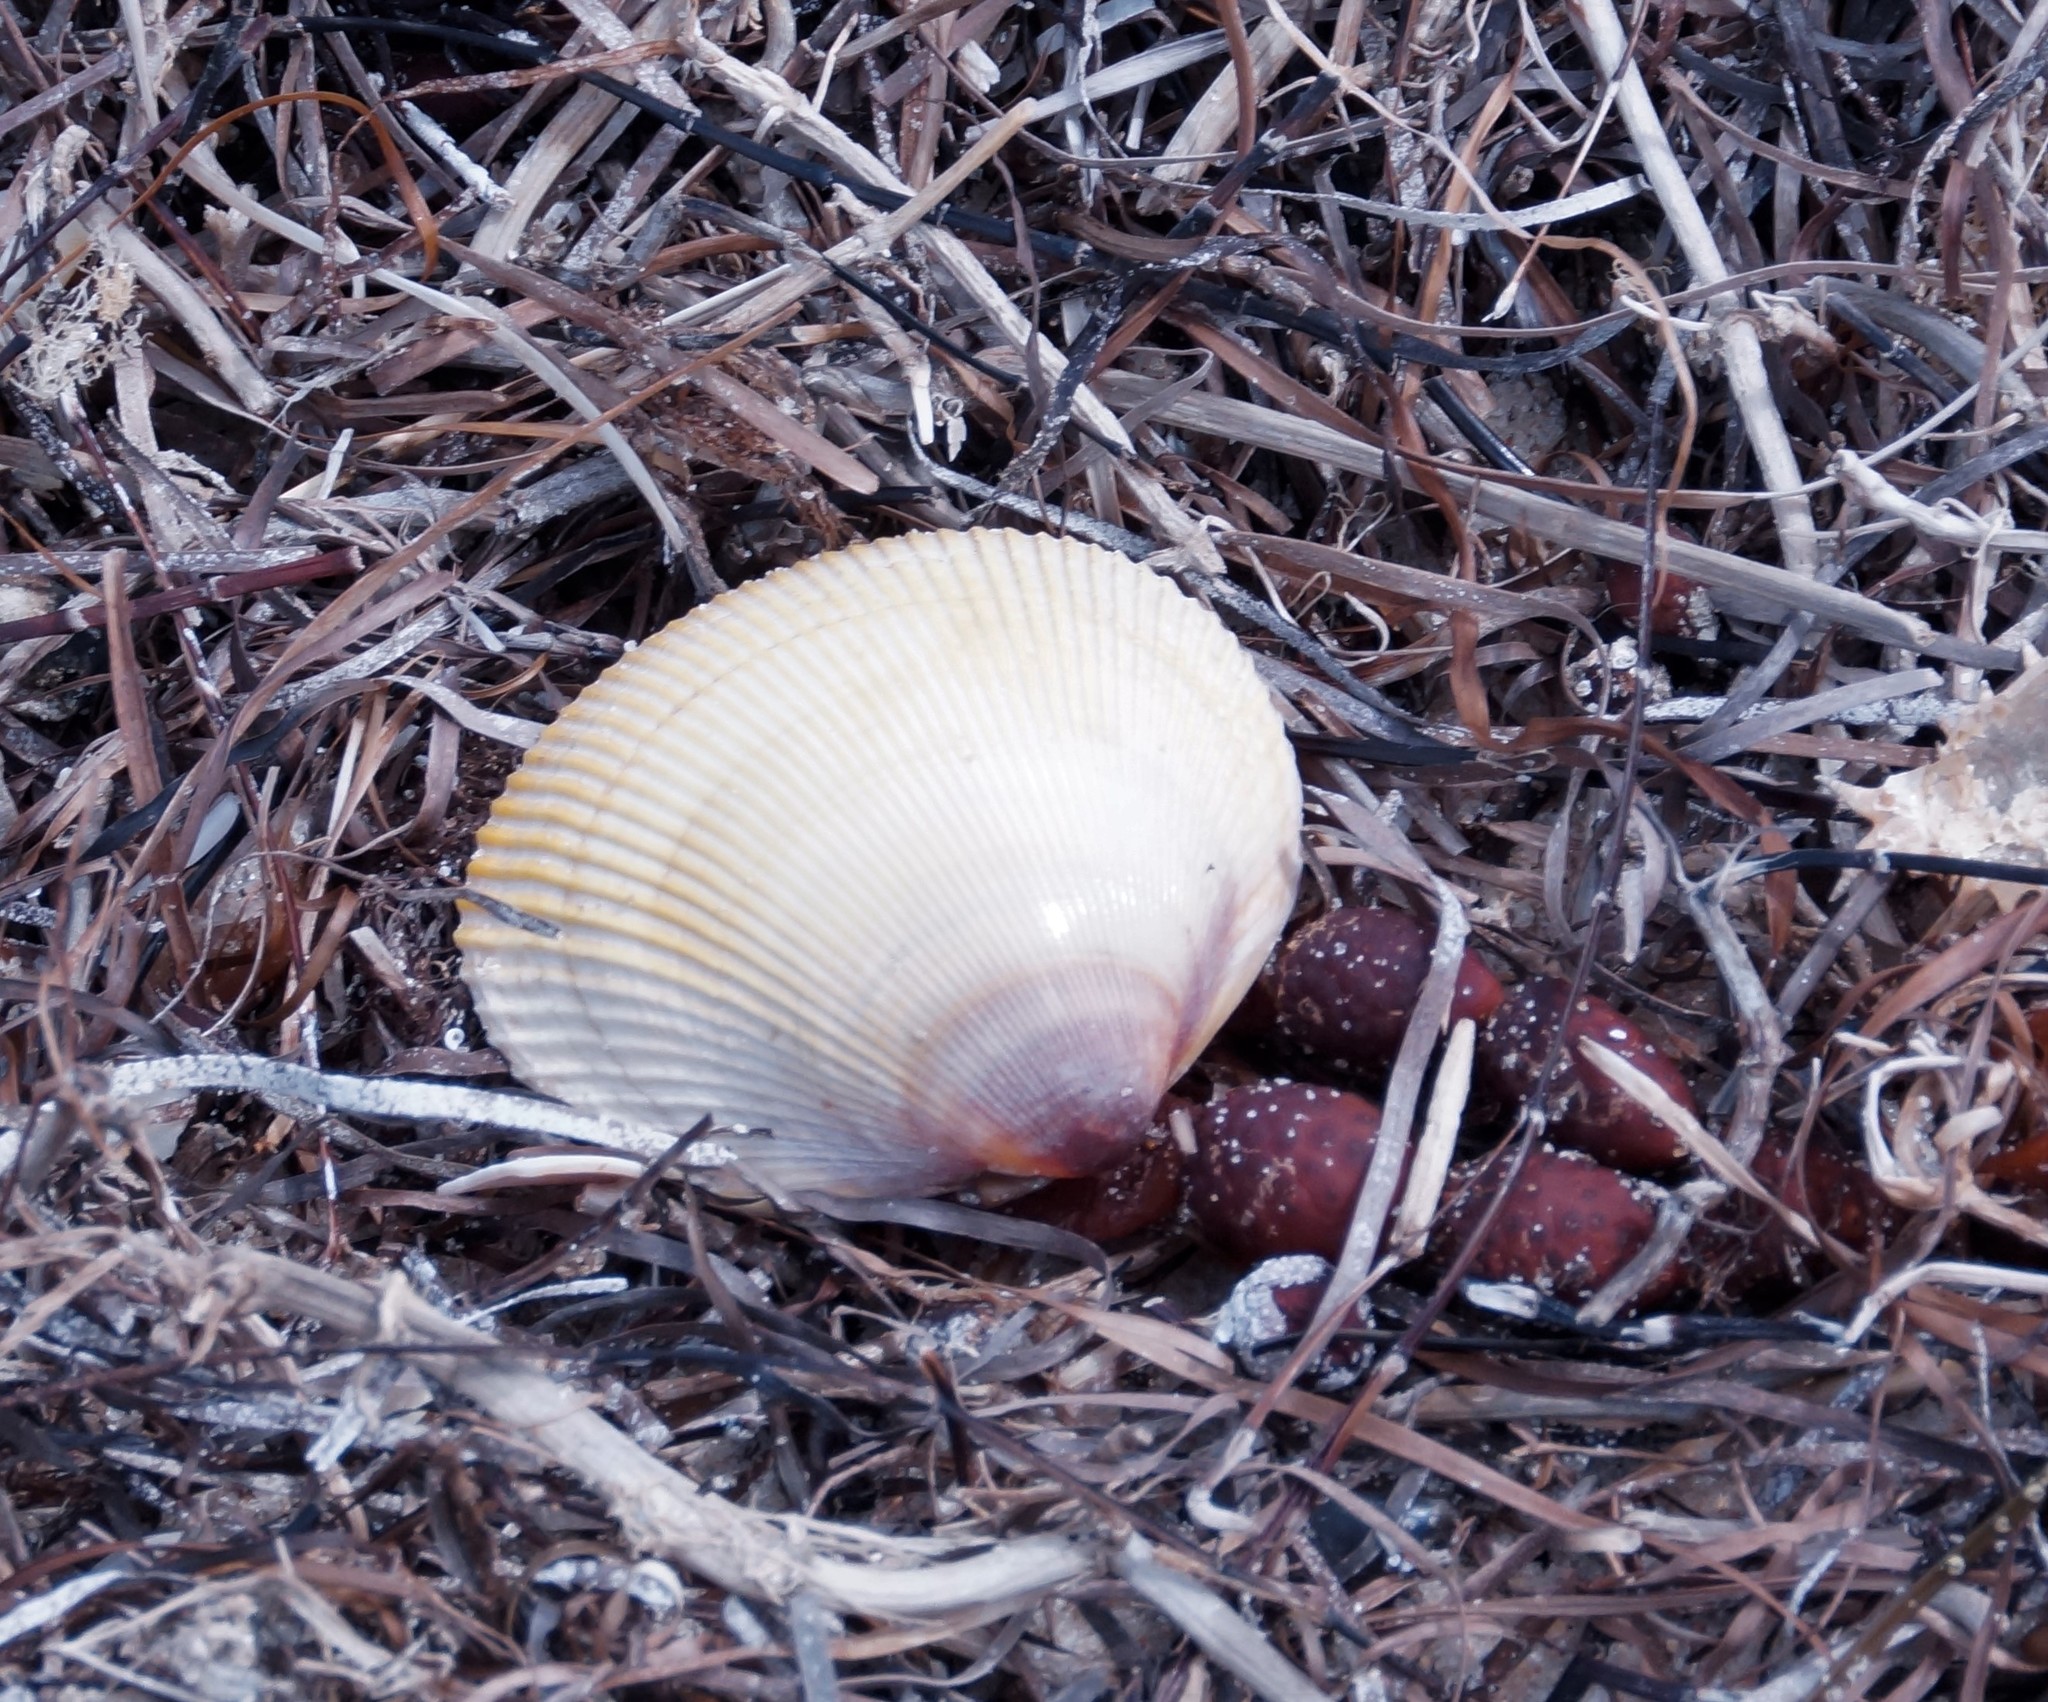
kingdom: Animalia
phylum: Mollusca
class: Bivalvia
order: Cardiida
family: Cardiidae
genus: Fulvia
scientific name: Fulvia tenuicostata
